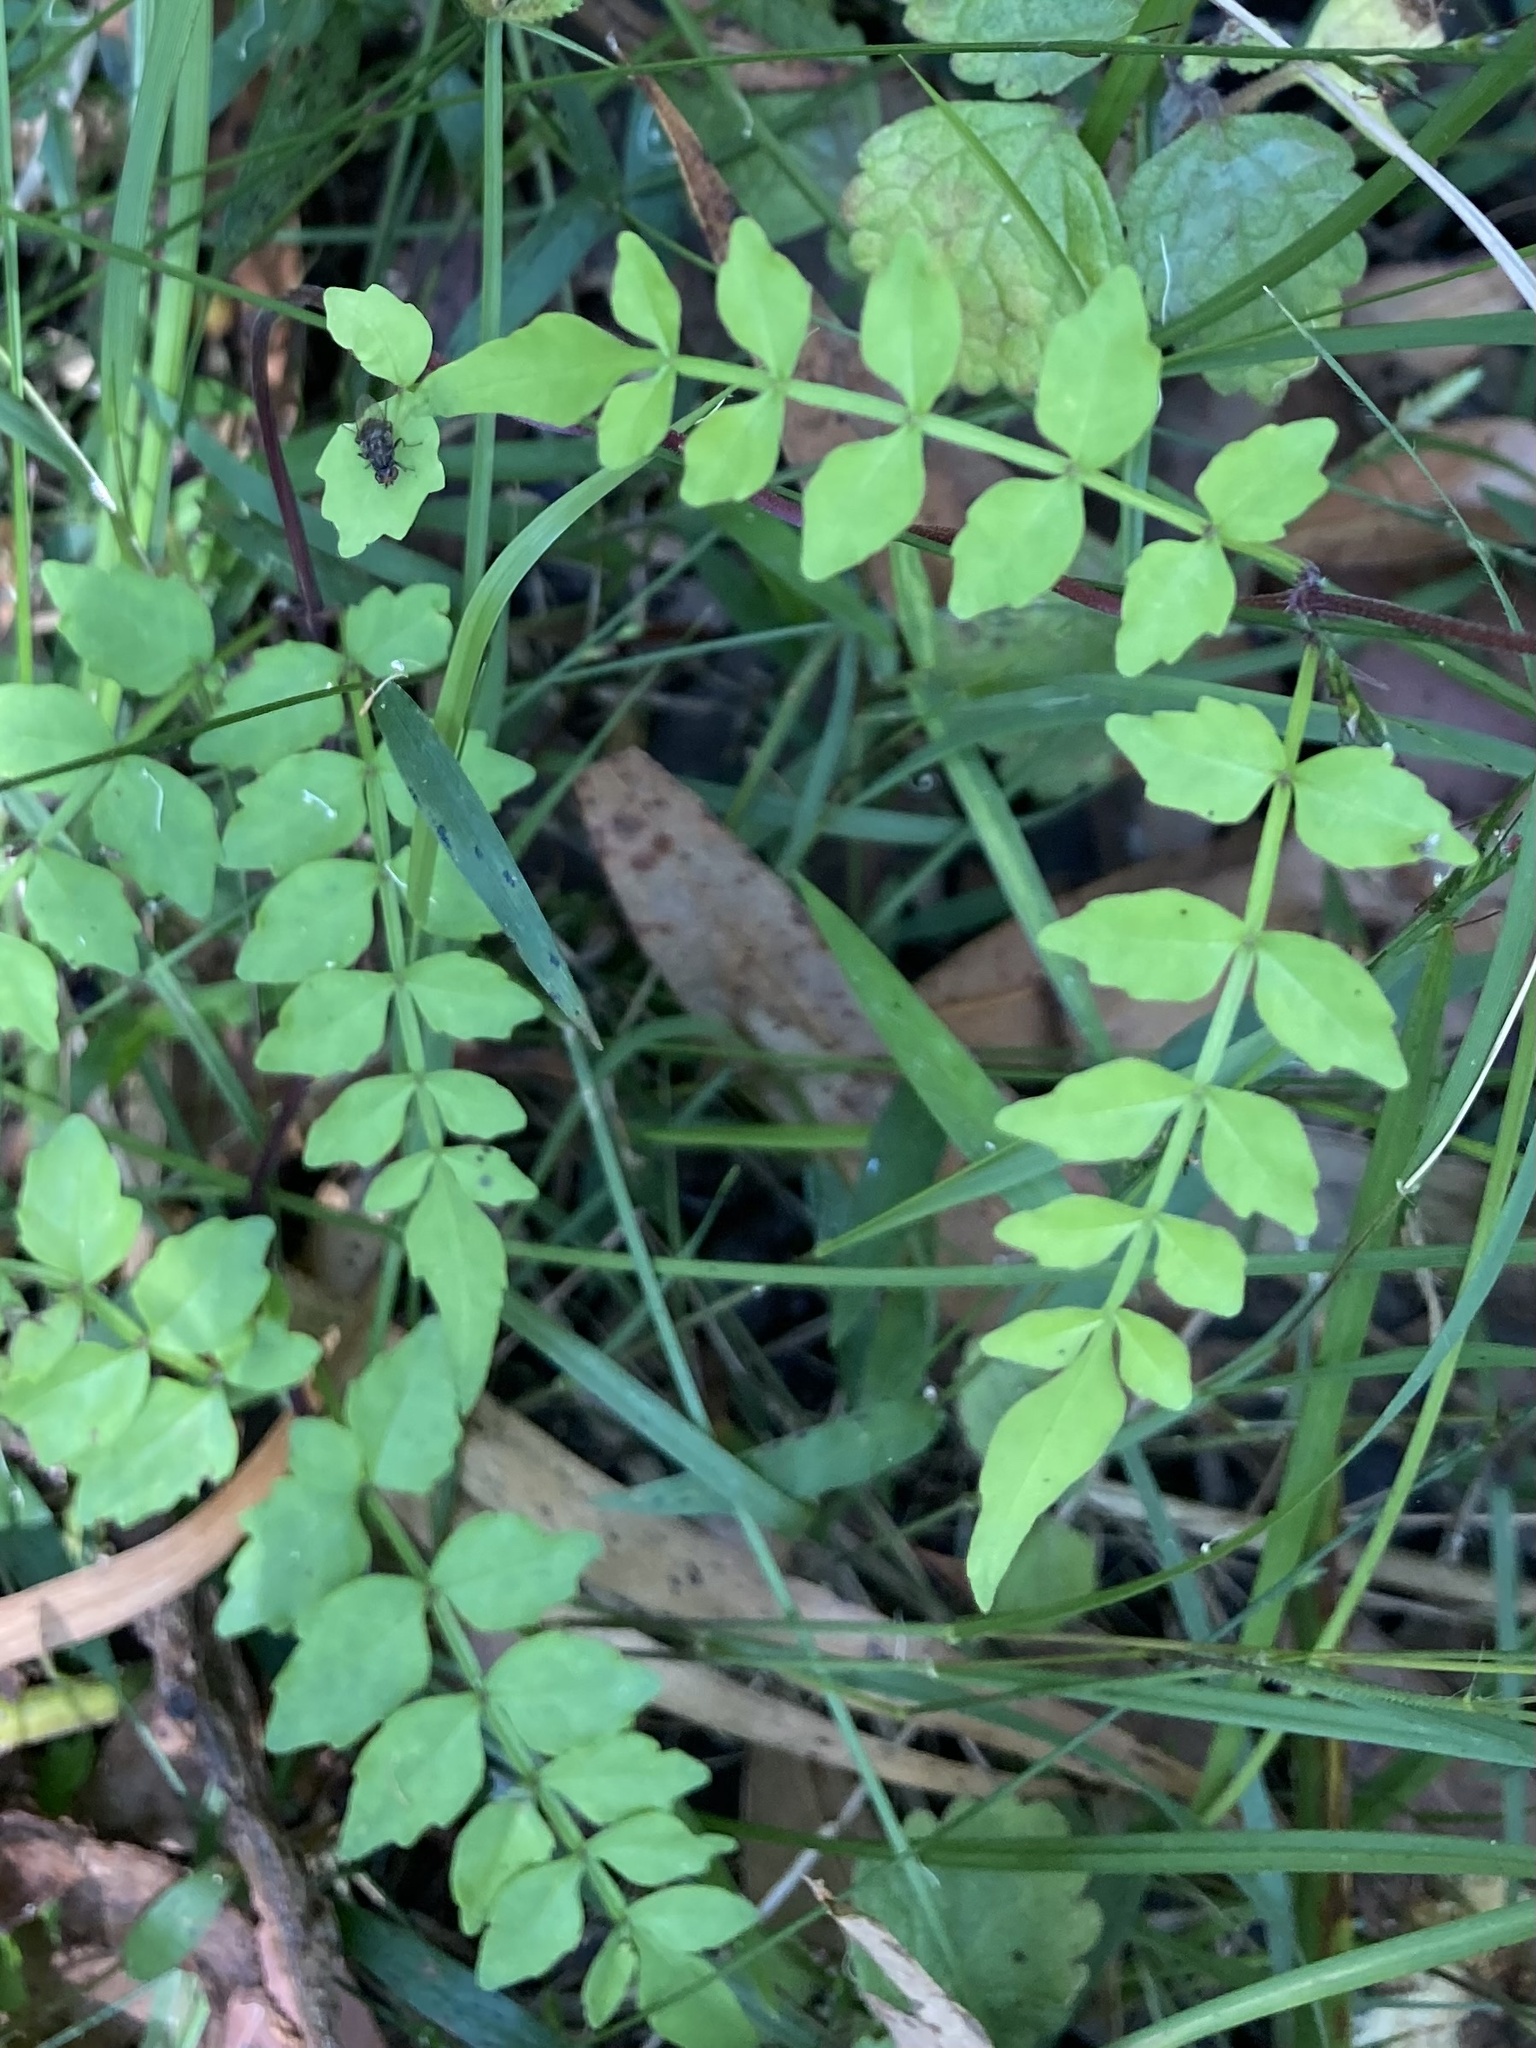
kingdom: Plantae
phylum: Tracheophyta
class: Magnoliopsida
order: Lamiales
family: Bignoniaceae
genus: Pandorea
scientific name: Pandorea pandorana
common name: Wonga-wonga-vine
